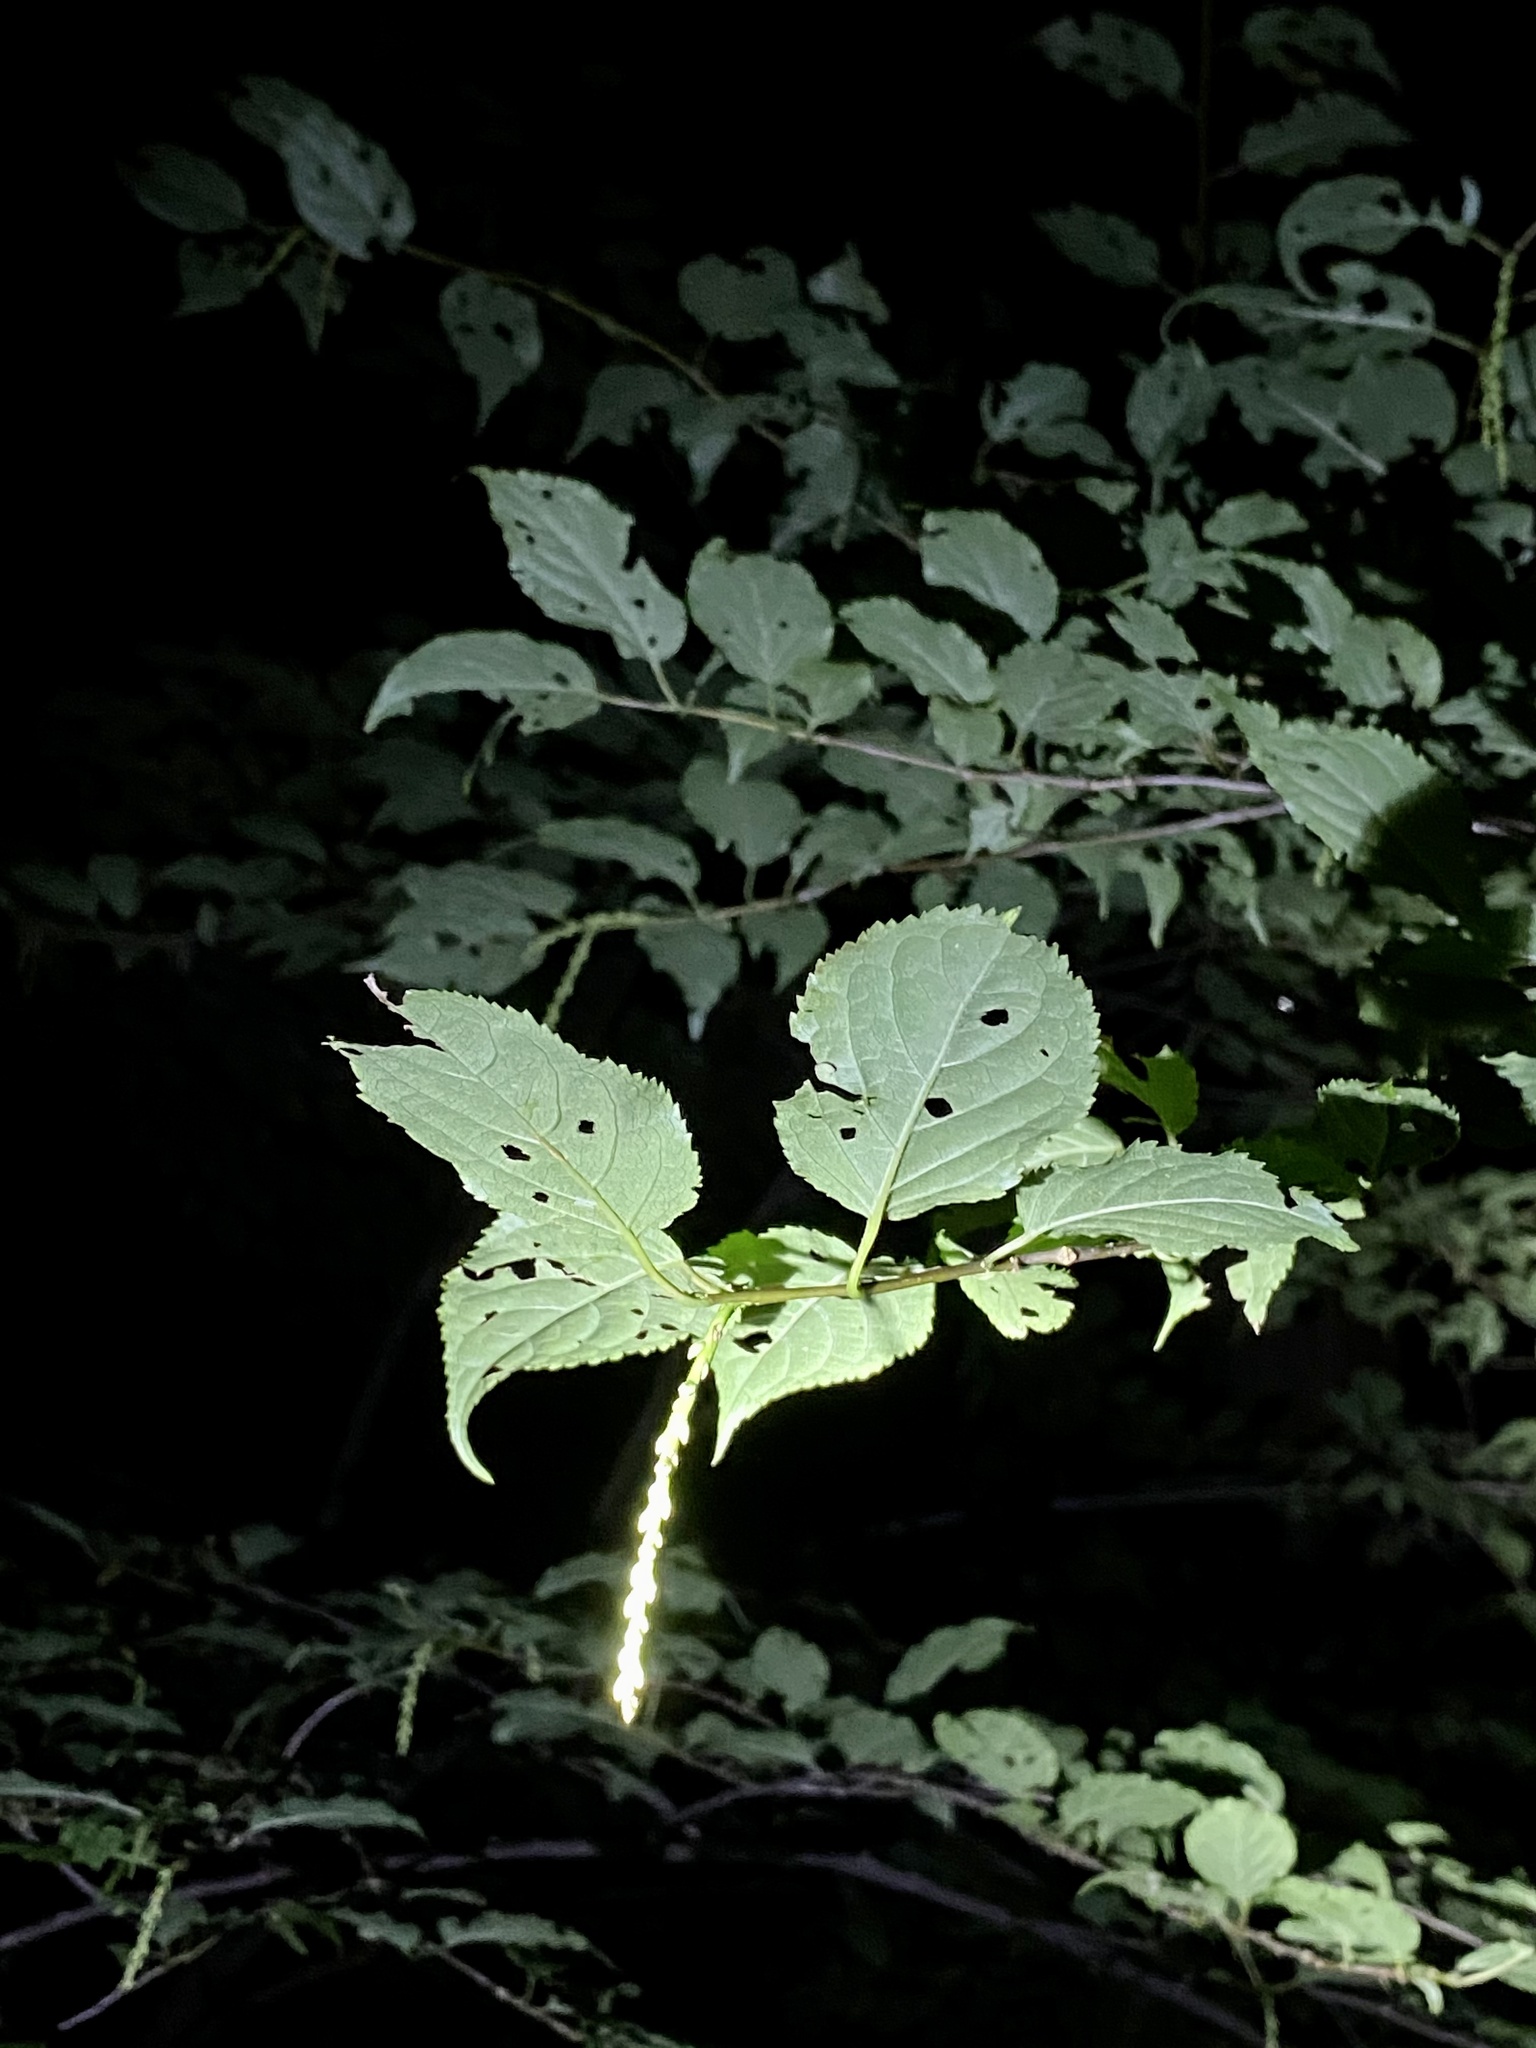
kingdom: Plantae
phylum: Tracheophyta
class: Magnoliopsida
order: Crossosomatales
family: Stachyuraceae
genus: Stachyurus
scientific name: Stachyurus praecox
